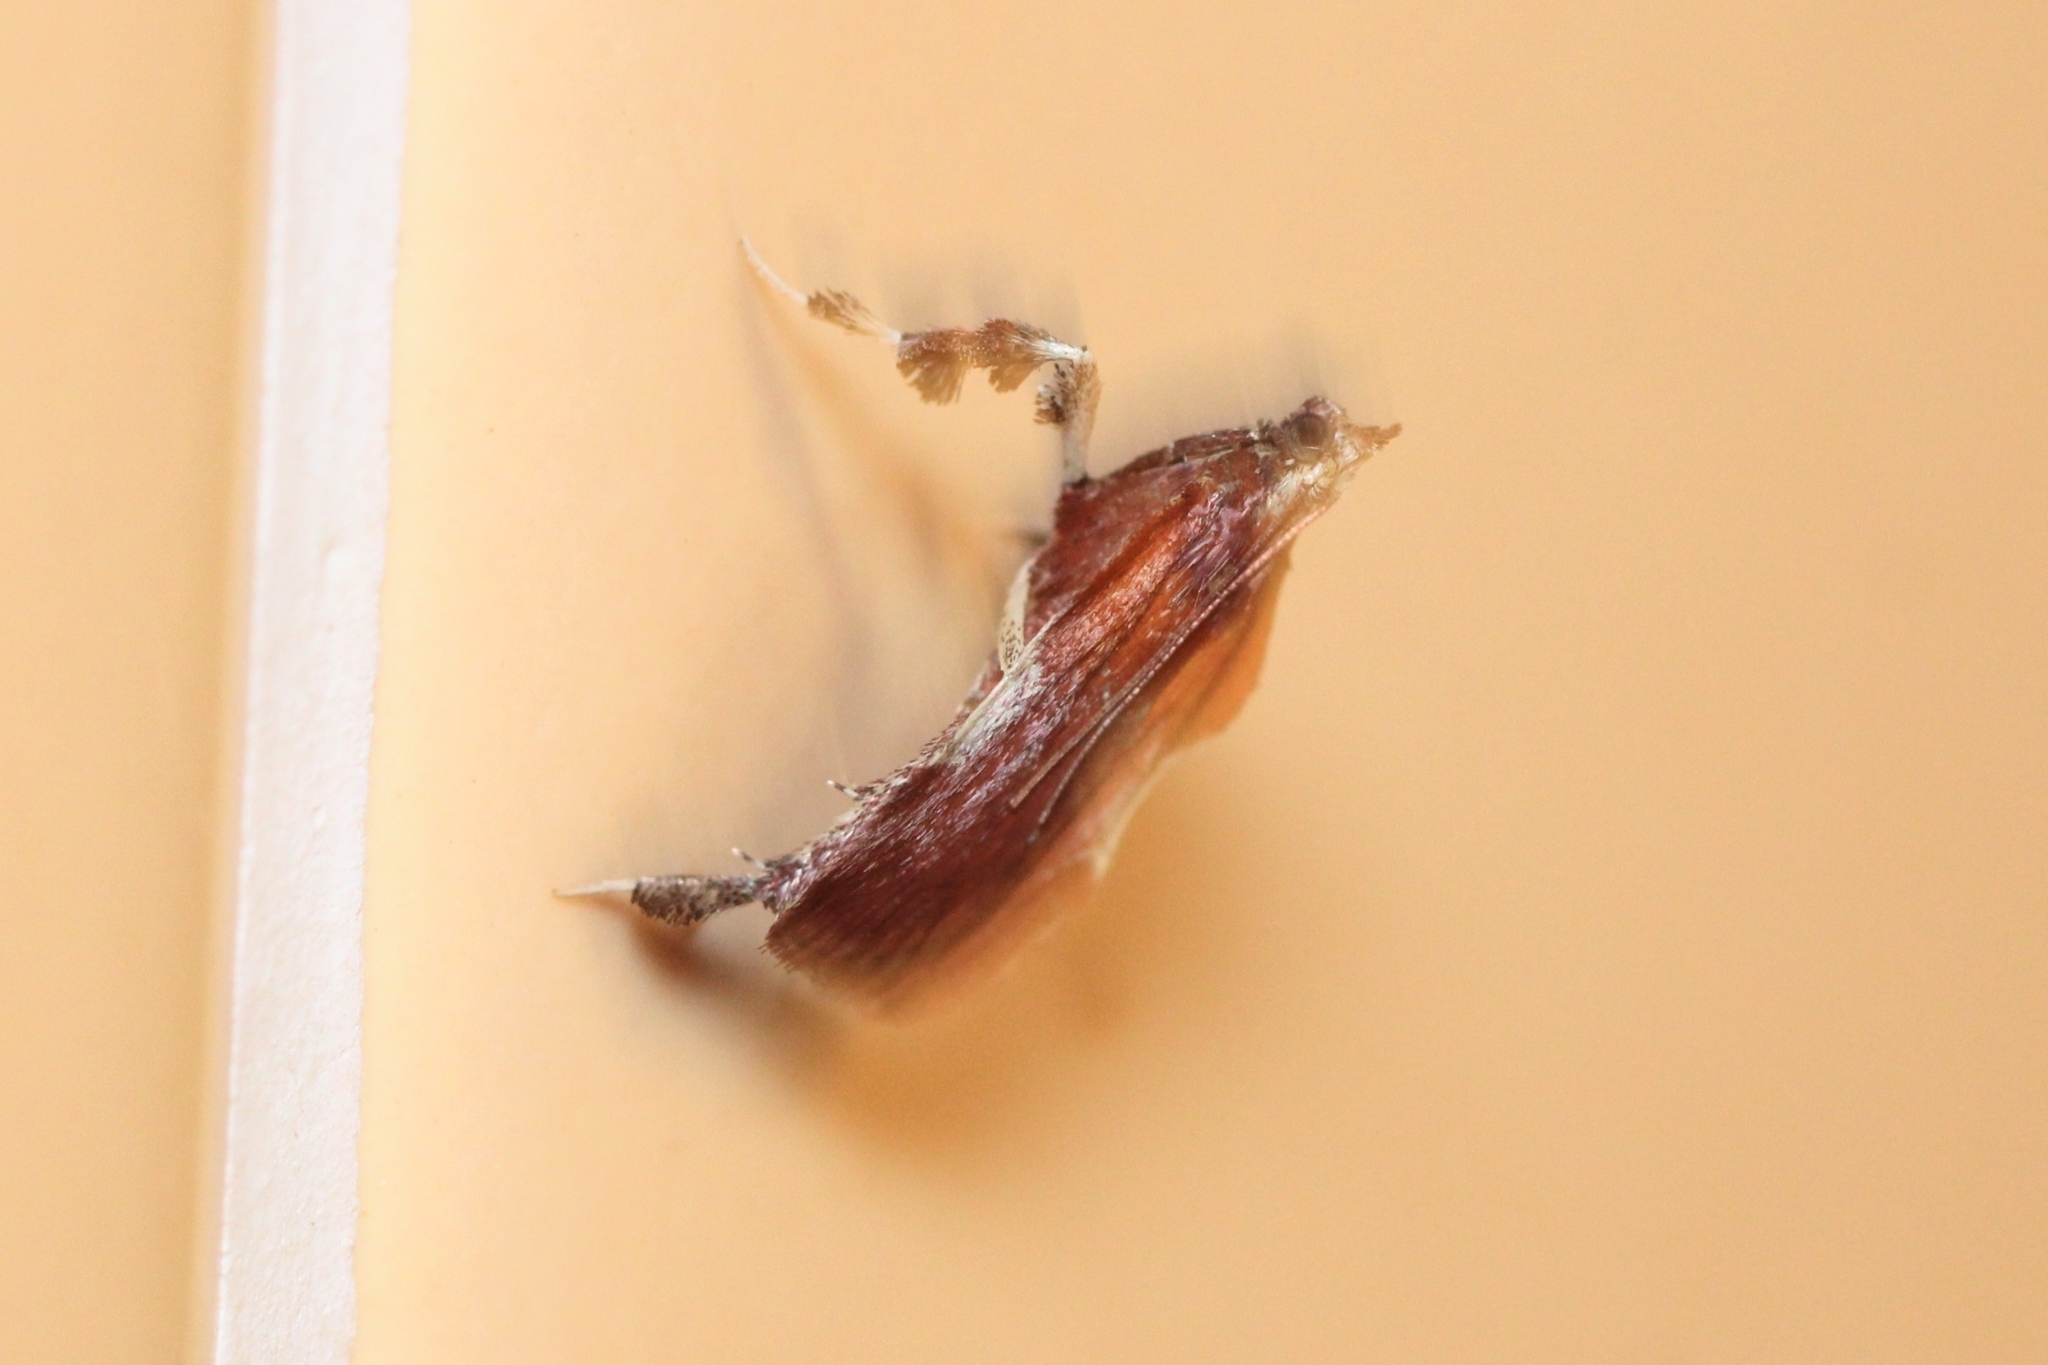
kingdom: Animalia
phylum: Arthropoda
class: Insecta
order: Lepidoptera
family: Pyralidae
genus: Galasa
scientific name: Galasa nigrinodis
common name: Boxwood leaftier moth
